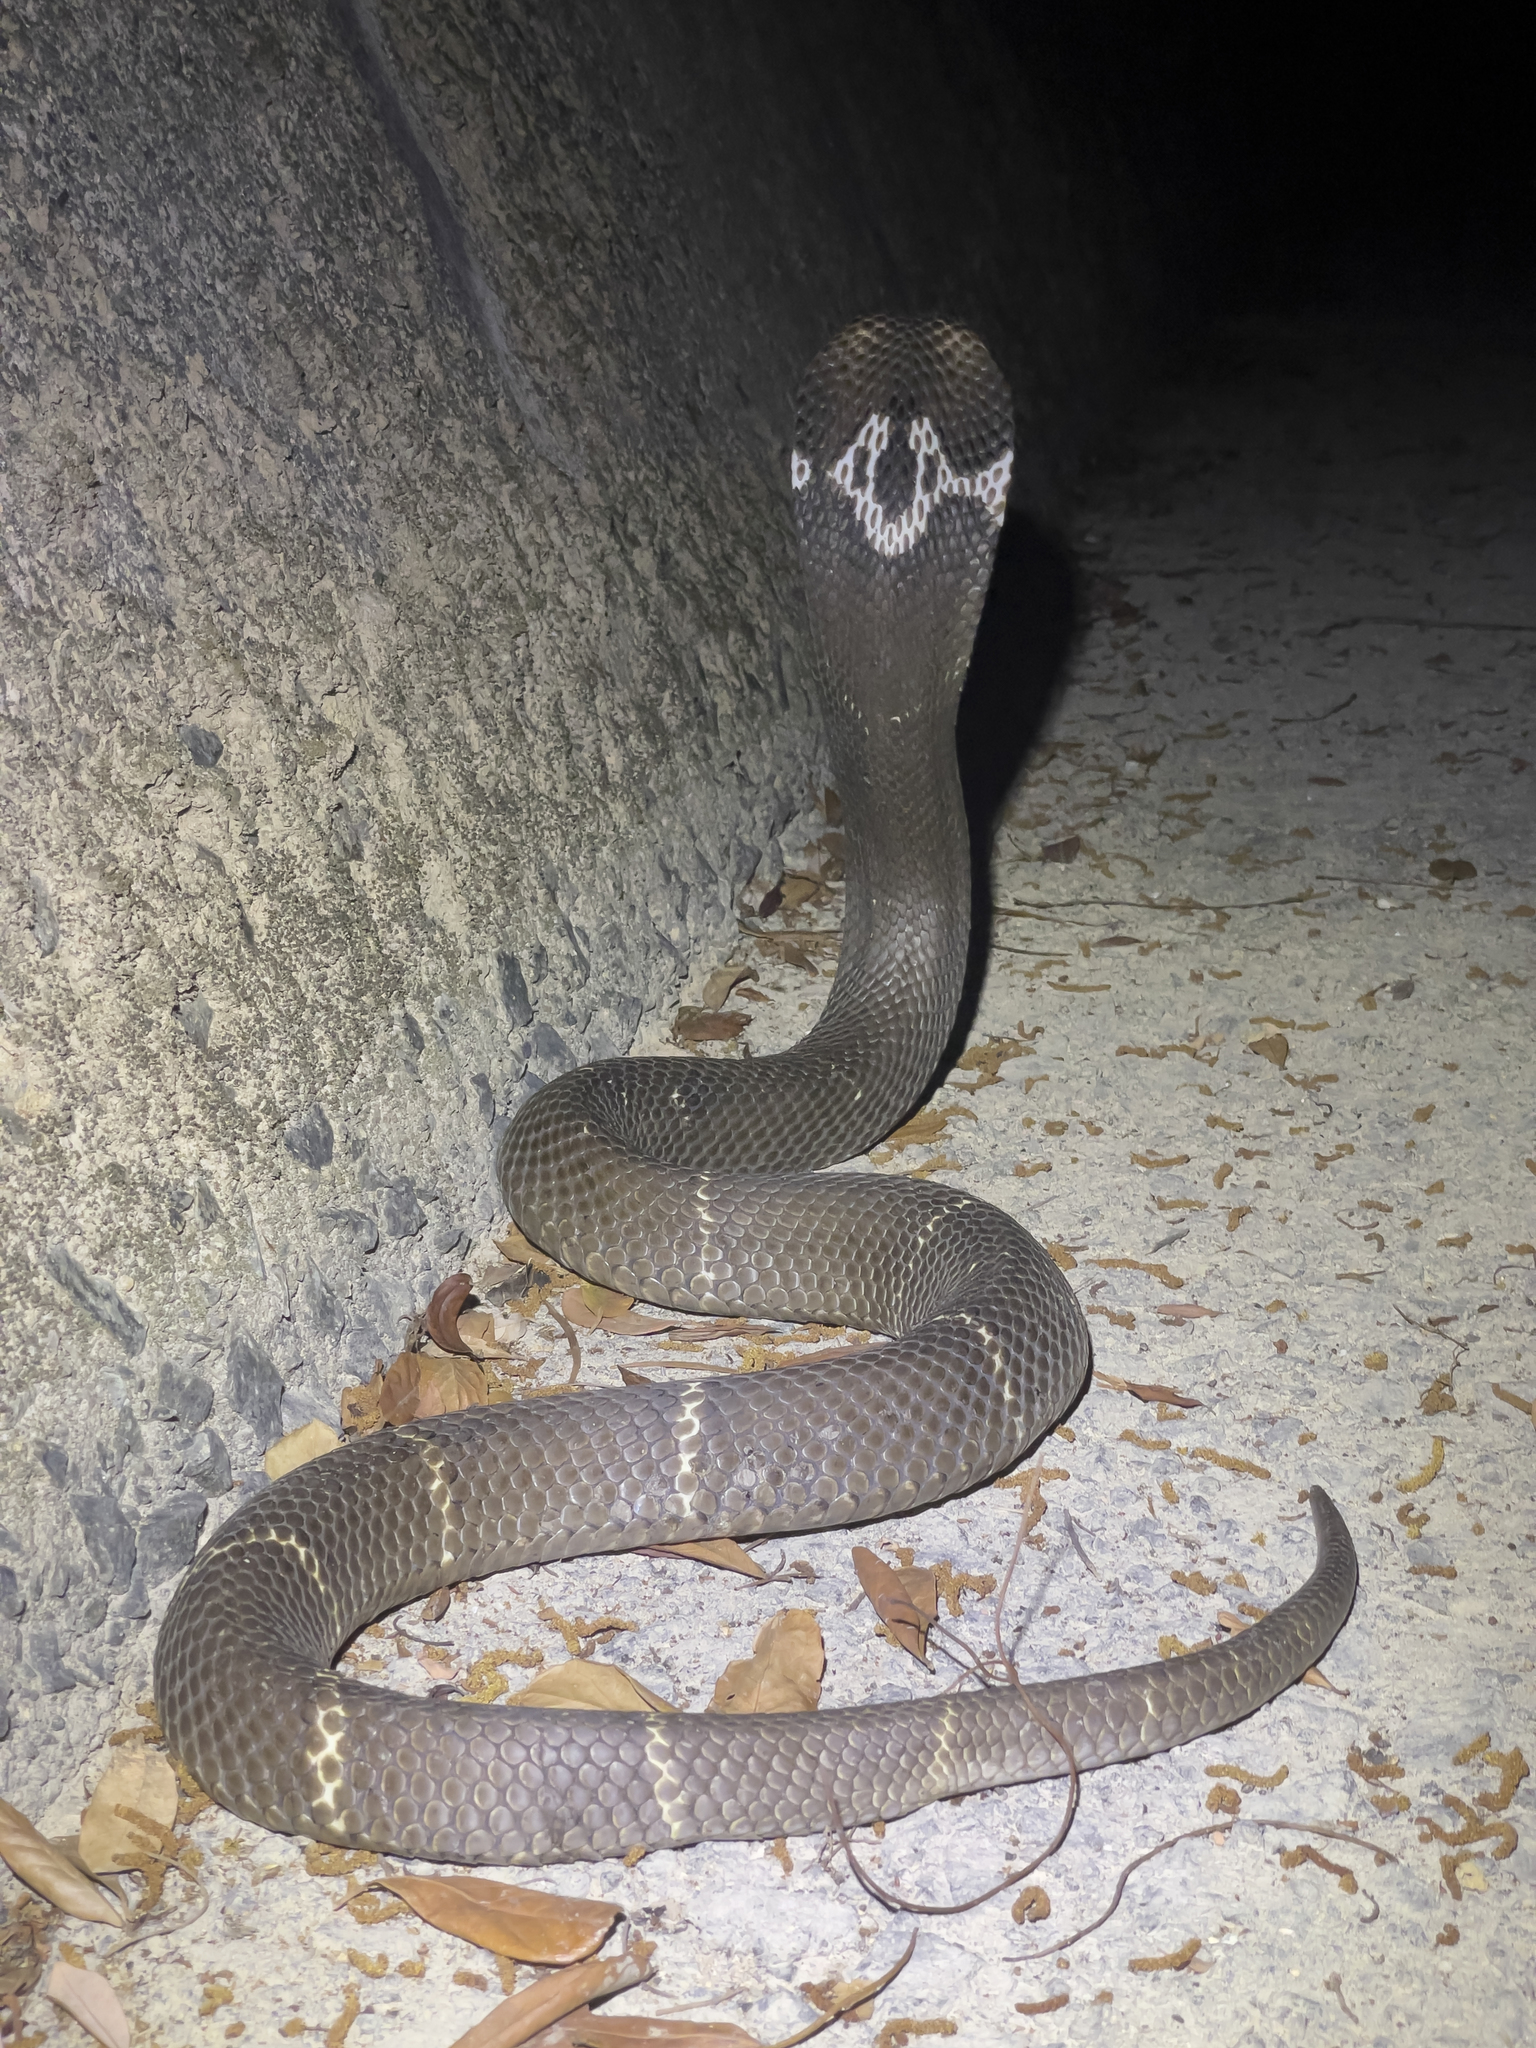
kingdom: Animalia
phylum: Chordata
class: Squamata
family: Elapidae
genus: Naja
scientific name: Naja atra
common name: Chinese cobra
